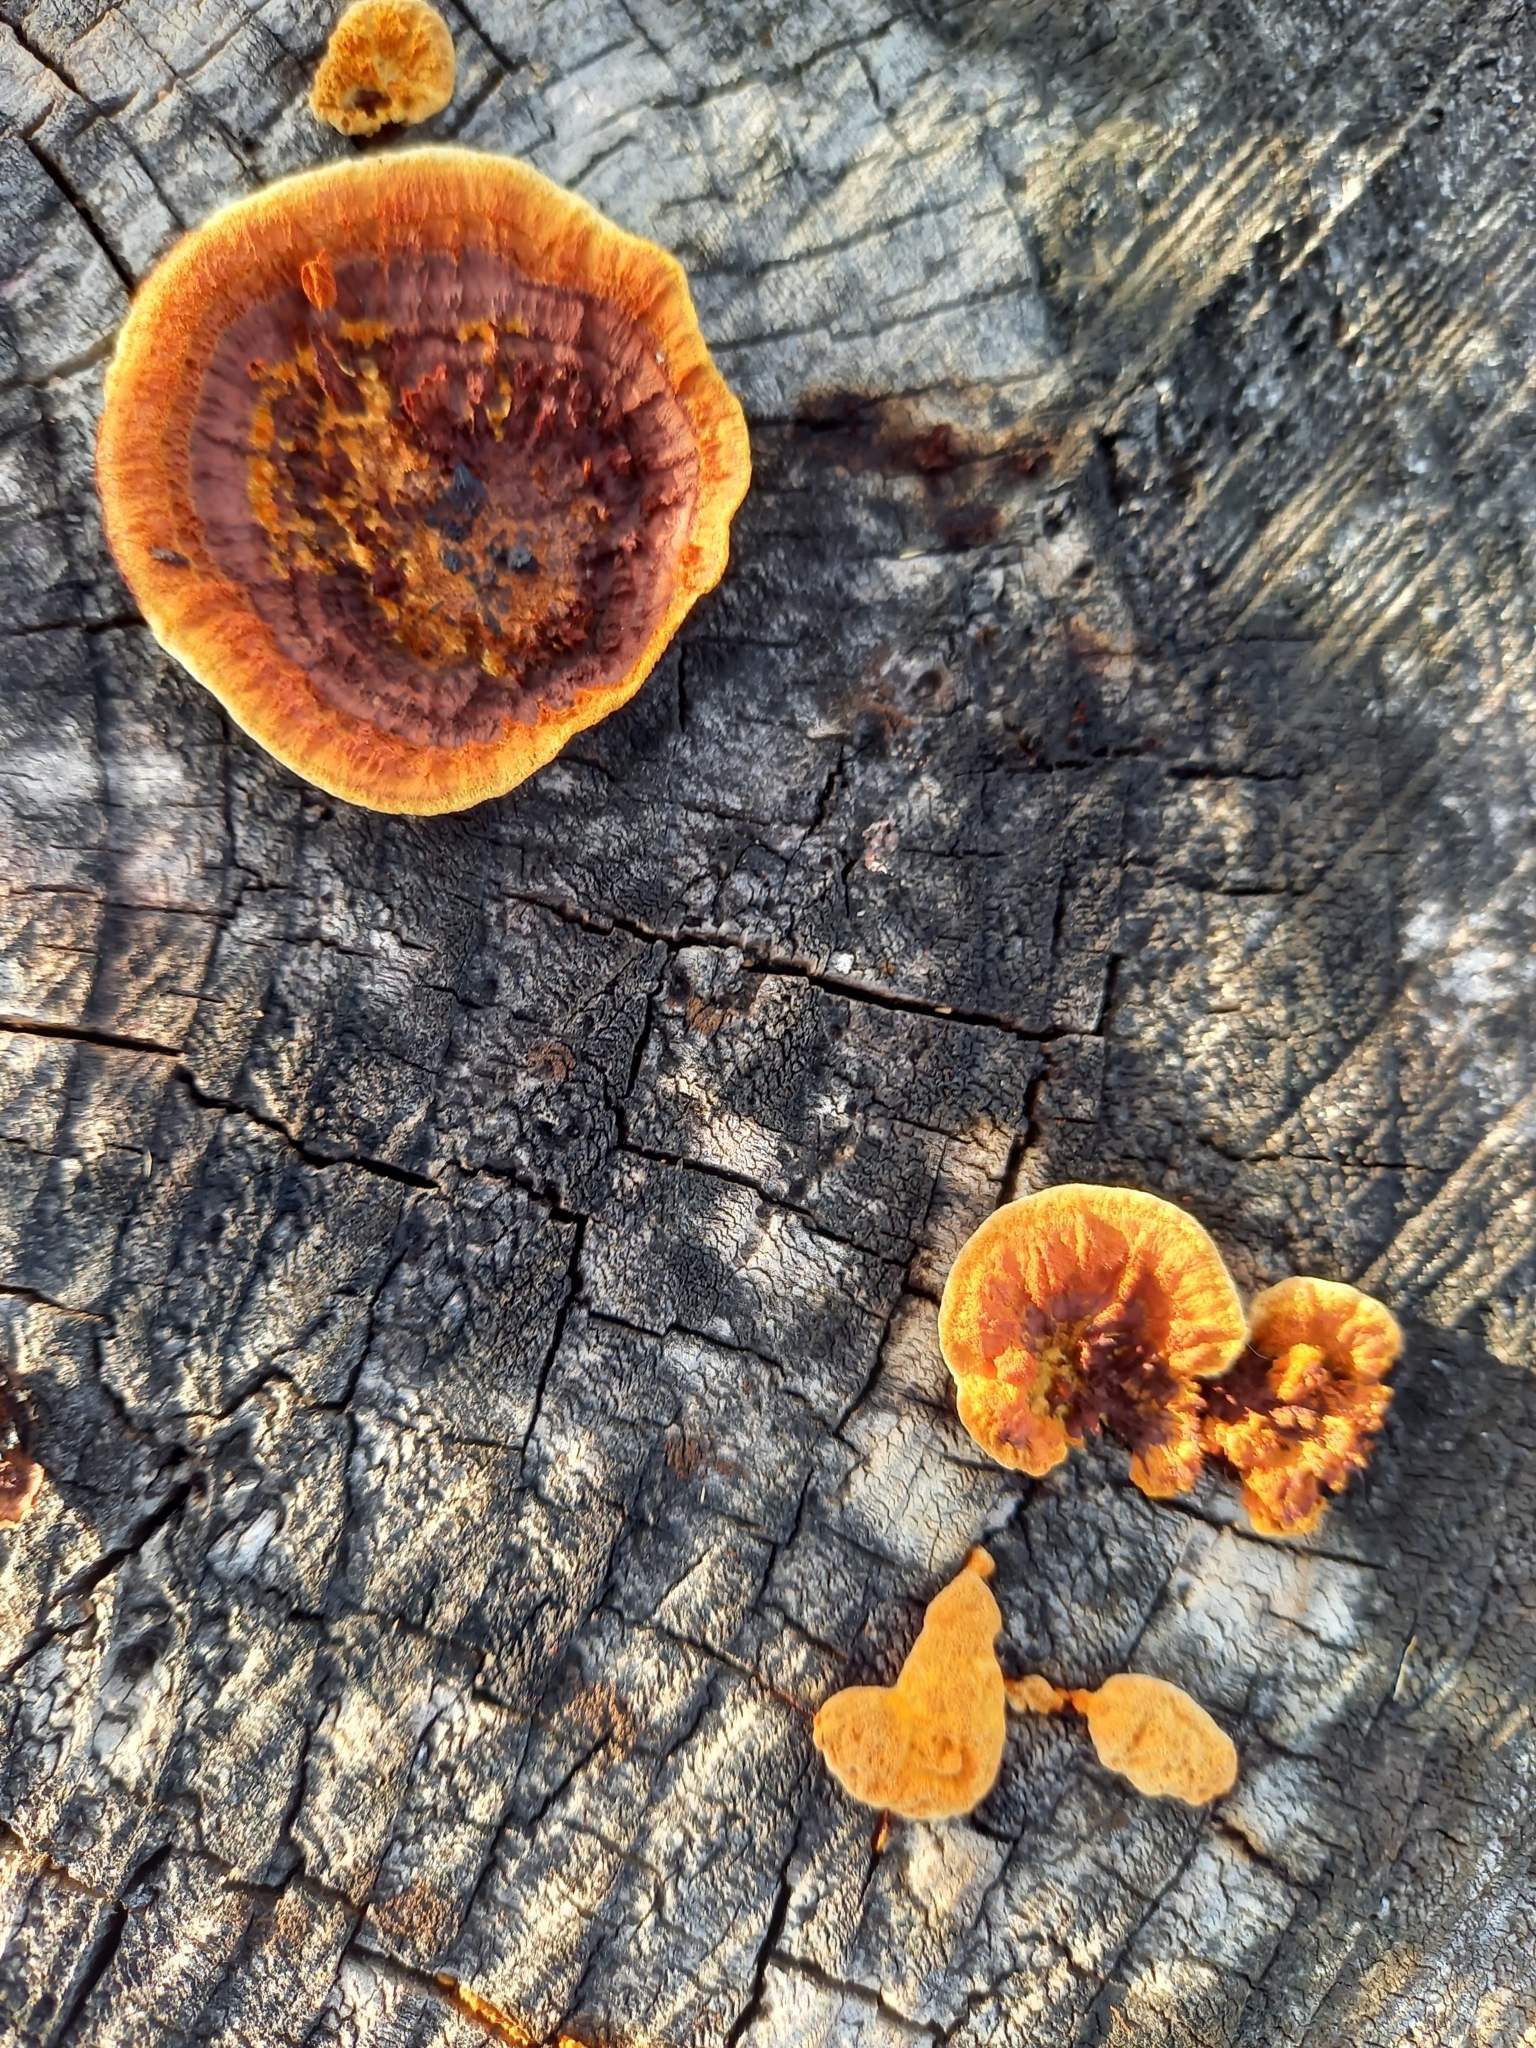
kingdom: Fungi
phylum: Basidiomycota
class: Agaricomycetes
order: Gloeophyllales
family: Gloeophyllaceae
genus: Gloeophyllum
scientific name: Gloeophyllum sepiarium
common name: Conifer mazegill
